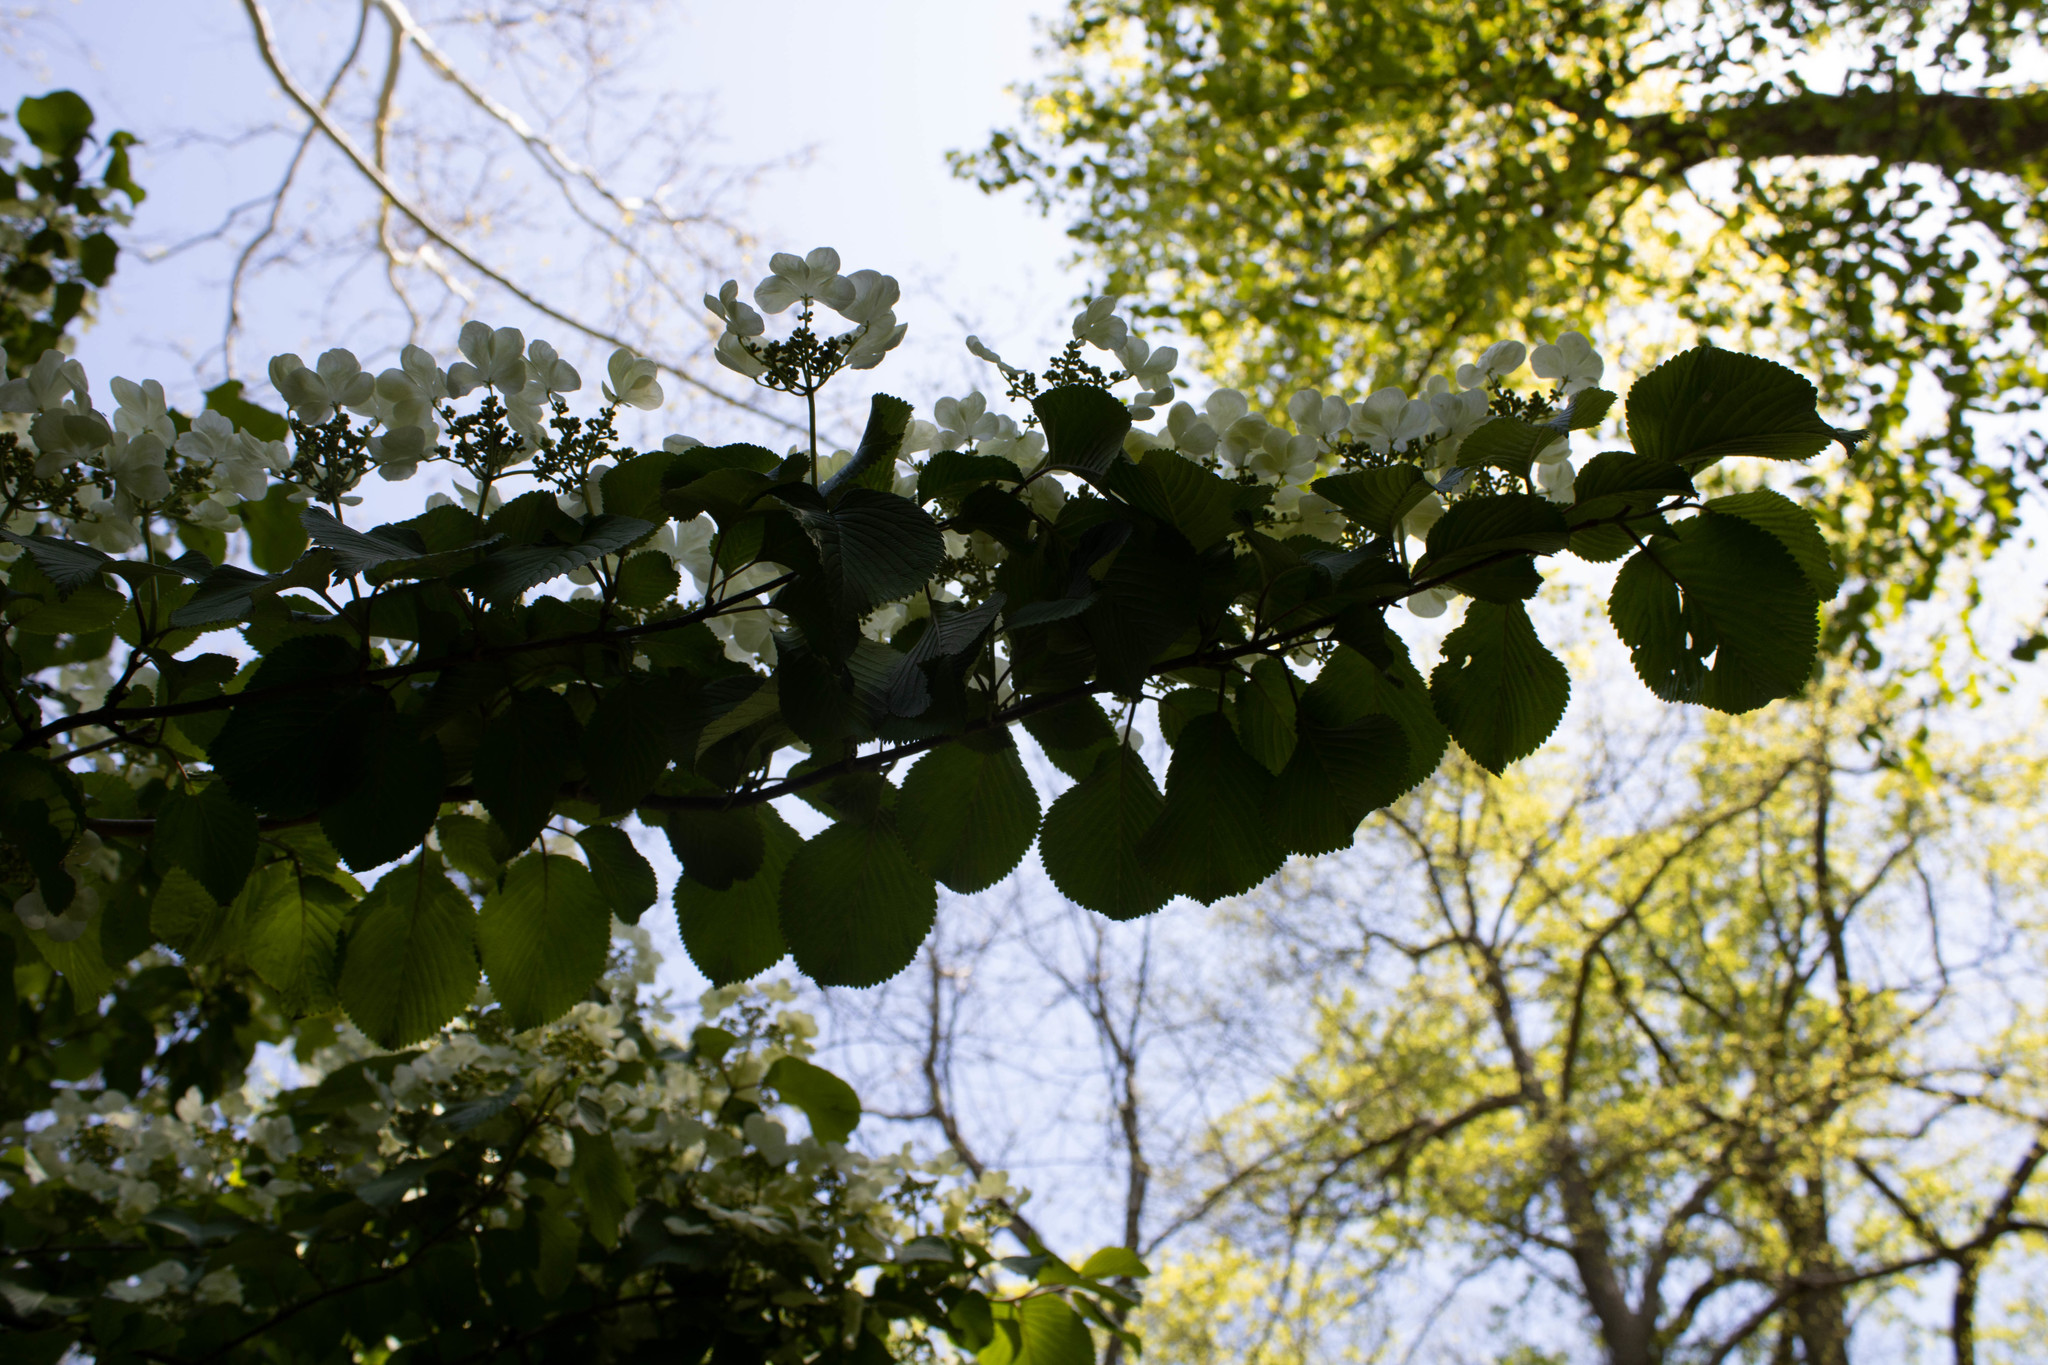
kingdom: Plantae
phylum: Tracheophyta
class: Magnoliopsida
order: Dipsacales
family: Viburnaceae
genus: Viburnum
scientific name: Viburnum plicatum
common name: Japanese snowball
